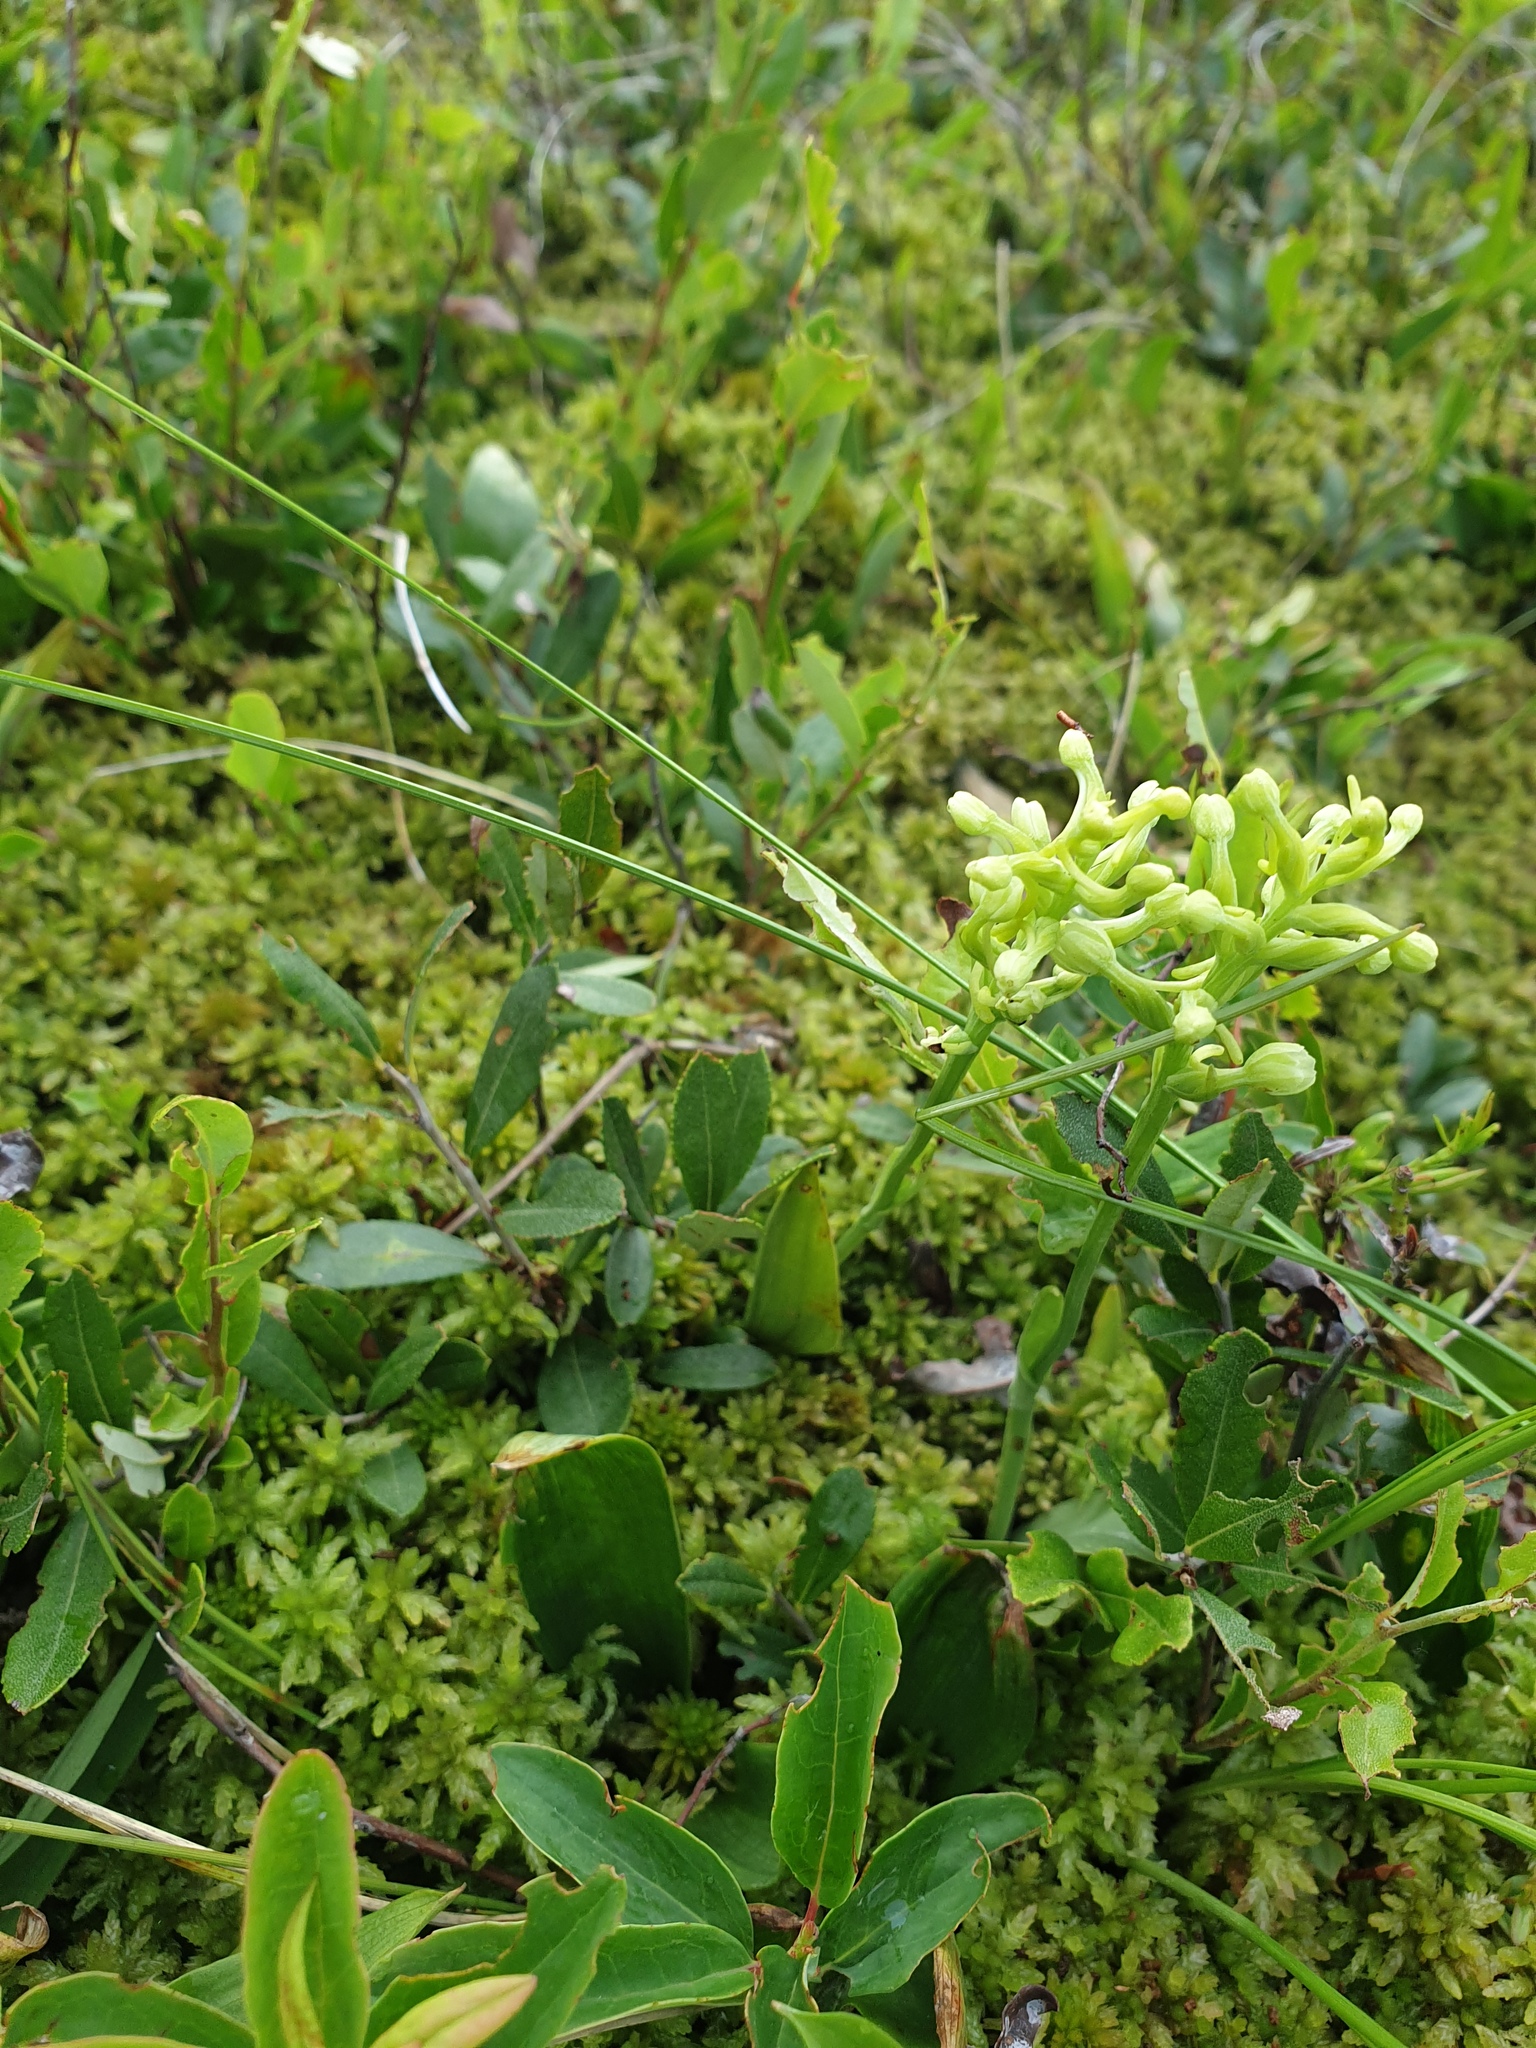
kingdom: Plantae
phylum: Tracheophyta
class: Liliopsida
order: Asparagales
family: Orchidaceae
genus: Platanthera
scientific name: Platanthera clavellata
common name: Club-spur orchid
